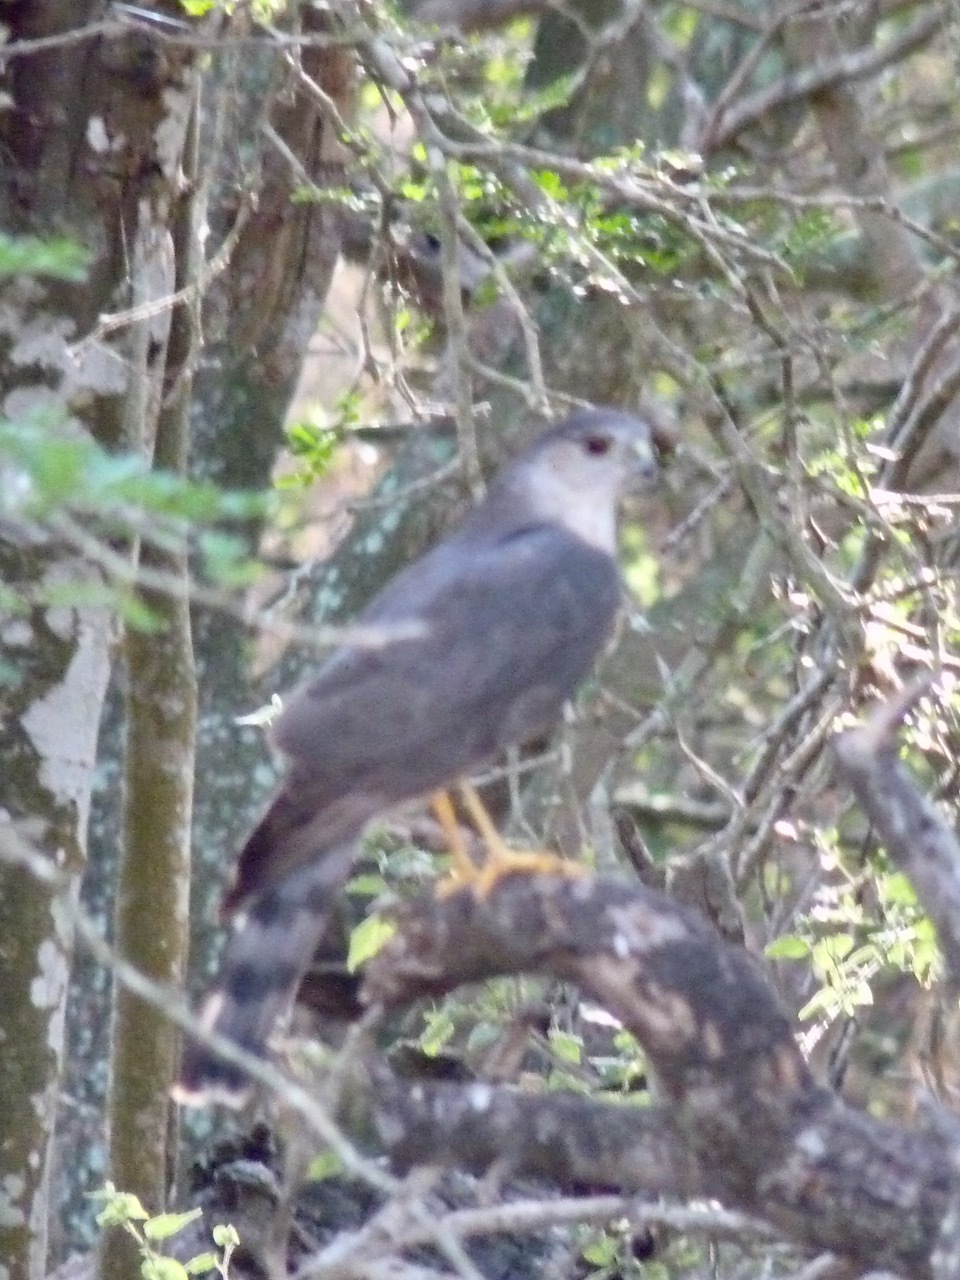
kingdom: Animalia
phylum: Chordata
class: Aves
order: Accipitriformes
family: Accipitridae
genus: Accipiter
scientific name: Accipiter striatus
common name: Sharp-shinned hawk
